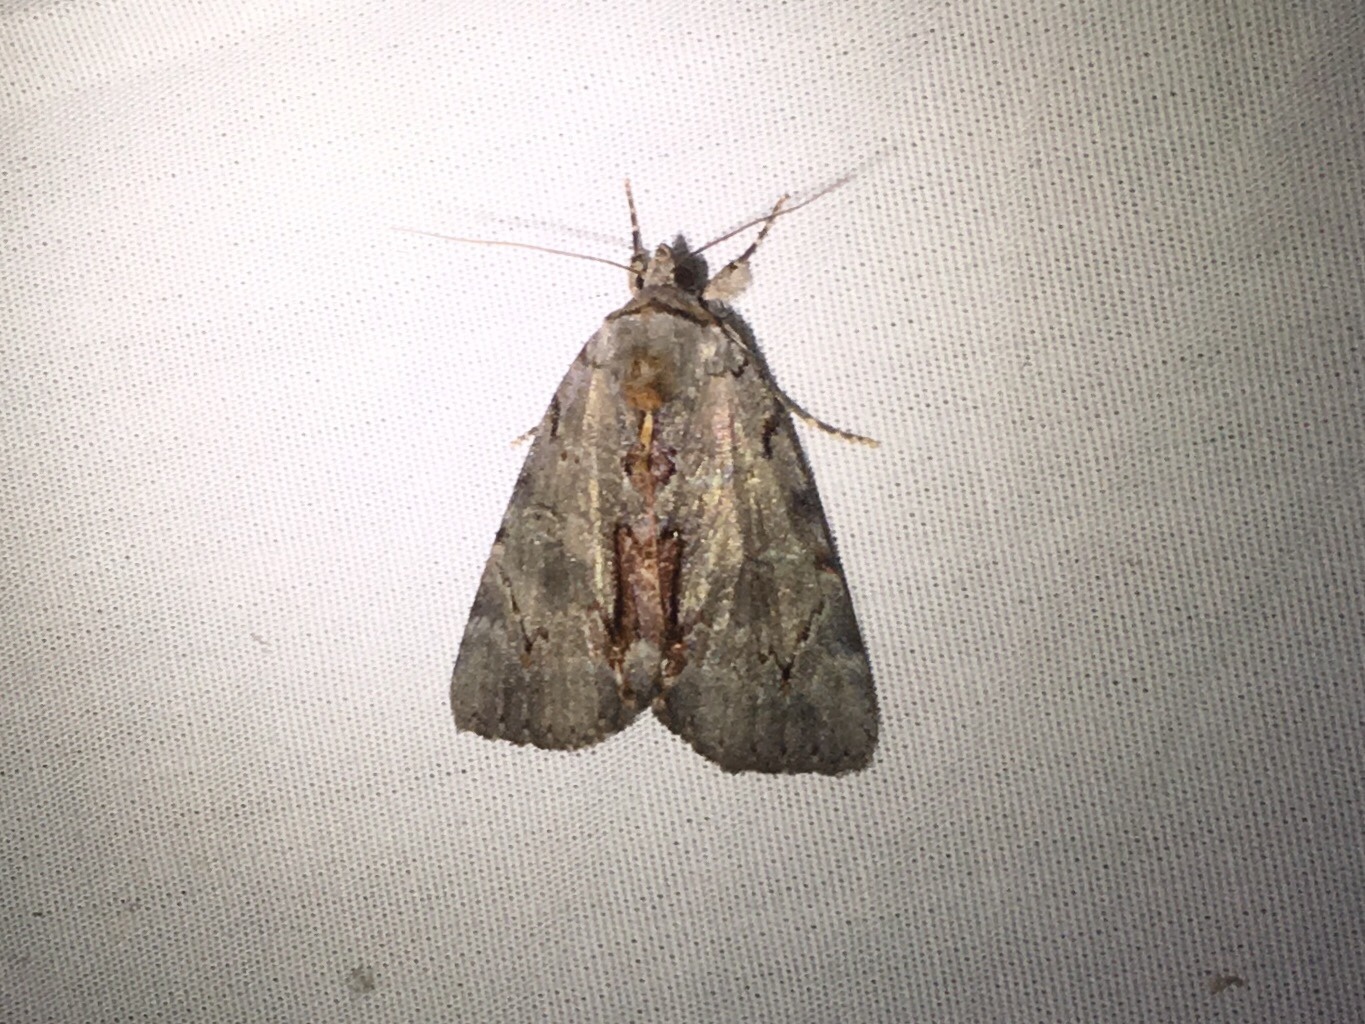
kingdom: Animalia
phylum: Arthropoda
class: Insecta
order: Lepidoptera
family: Erebidae
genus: Catocala
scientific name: Catocala grynea
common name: Woody underwing
